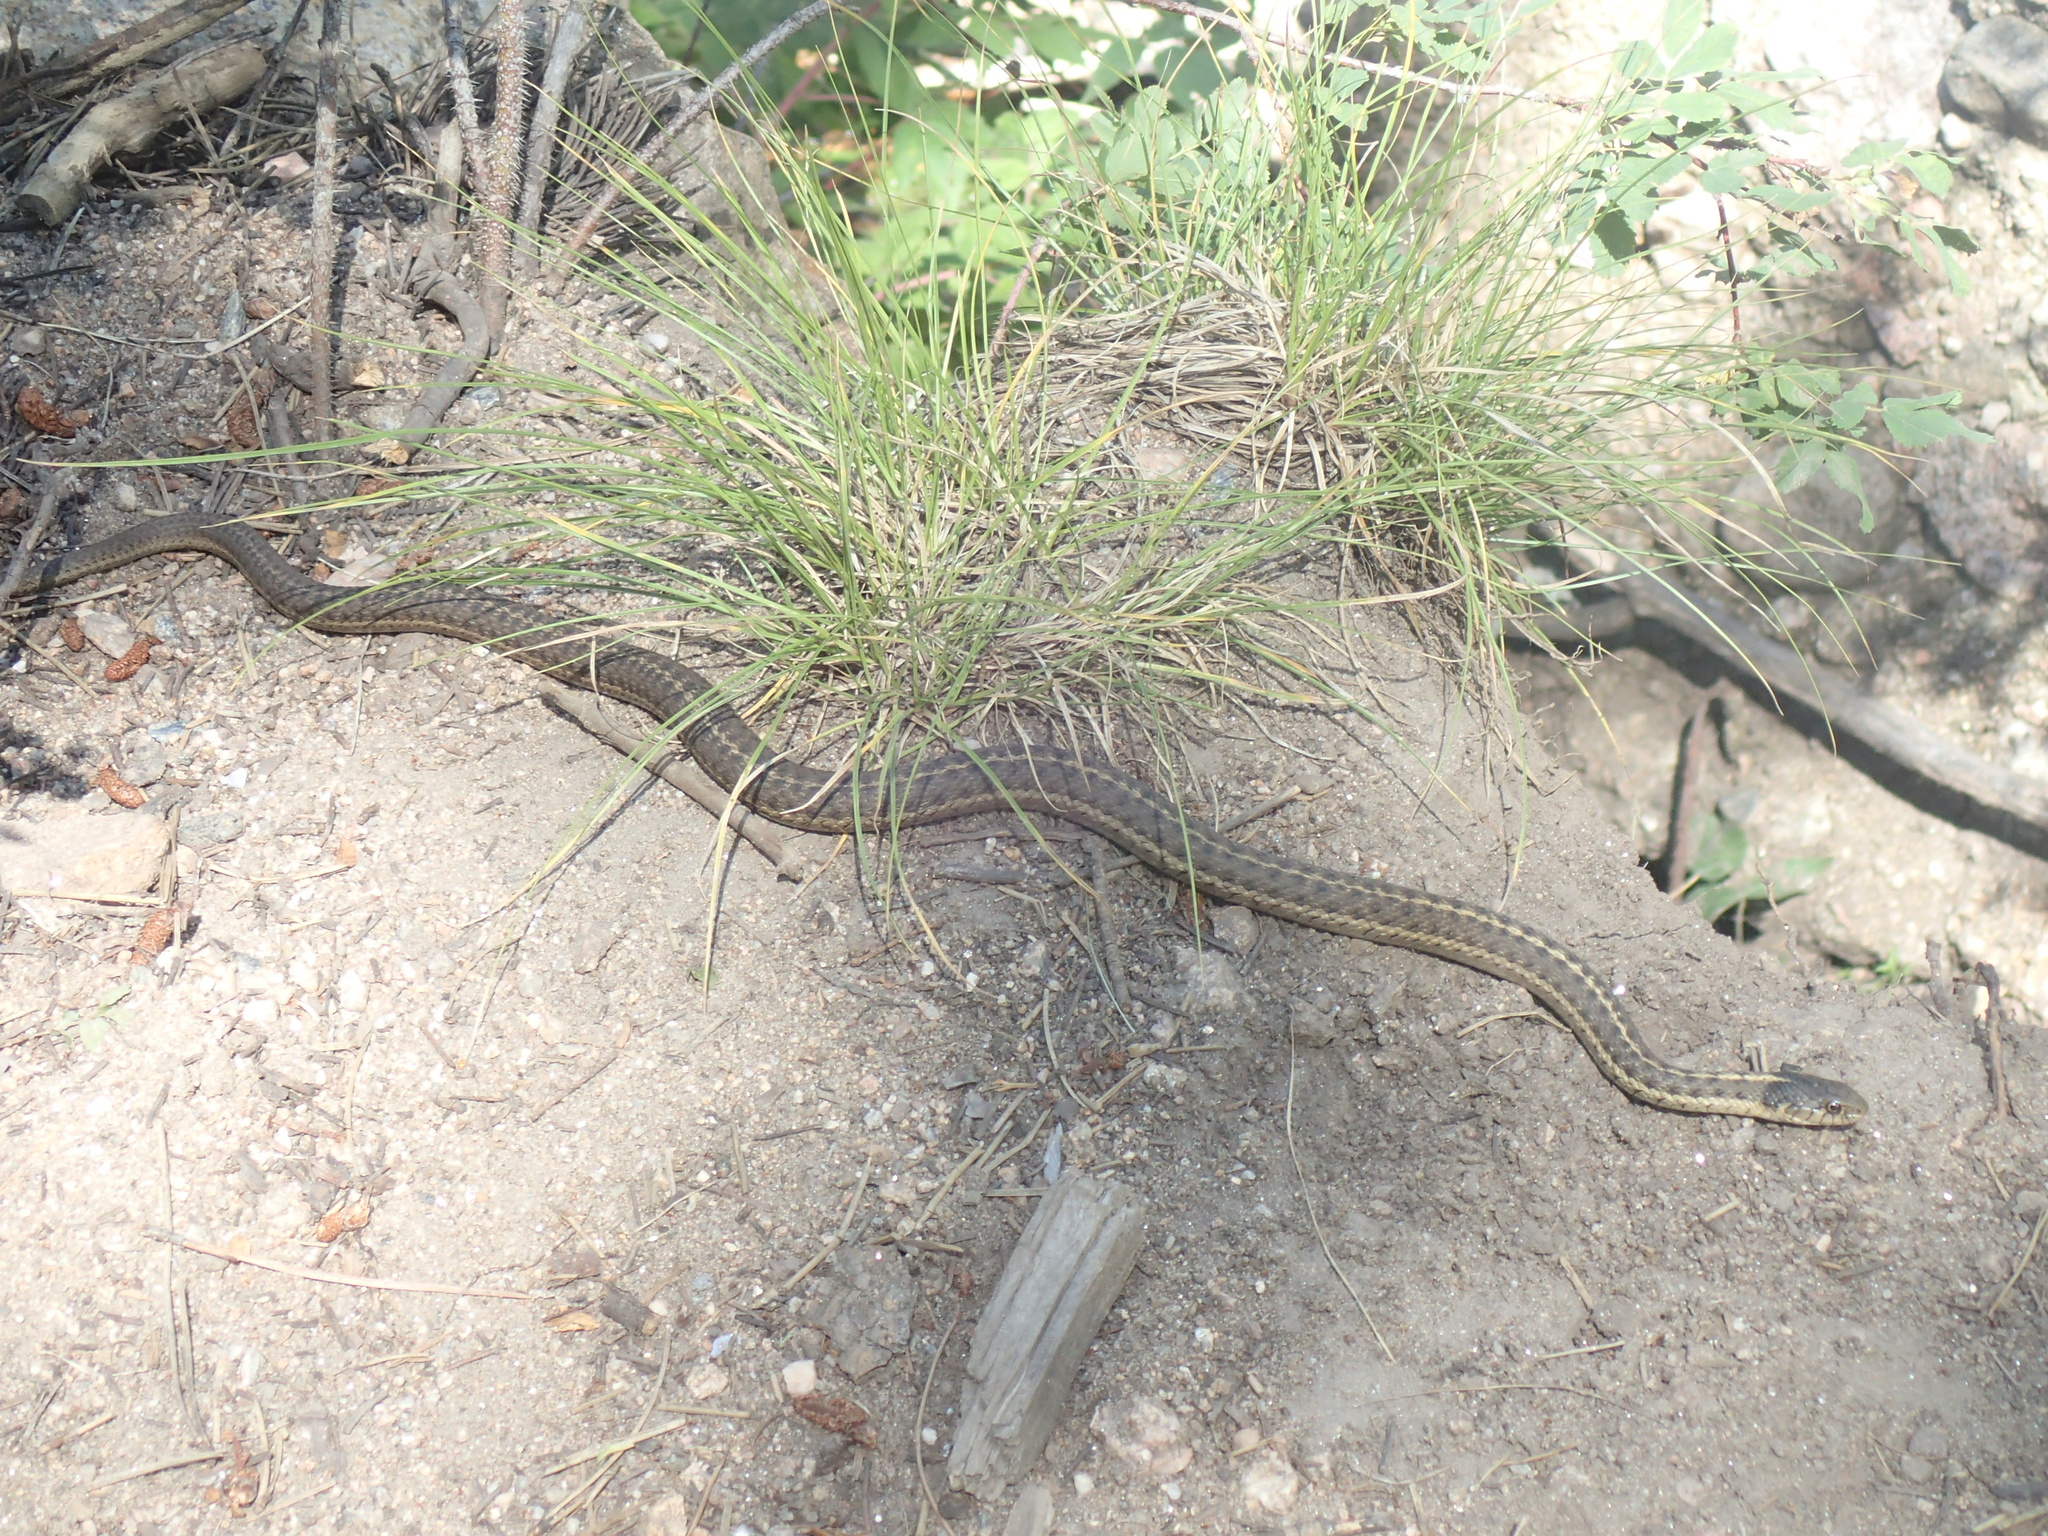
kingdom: Animalia
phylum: Chordata
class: Squamata
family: Colubridae
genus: Thamnophis
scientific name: Thamnophis elegans
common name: Western terrestrial garter snake
